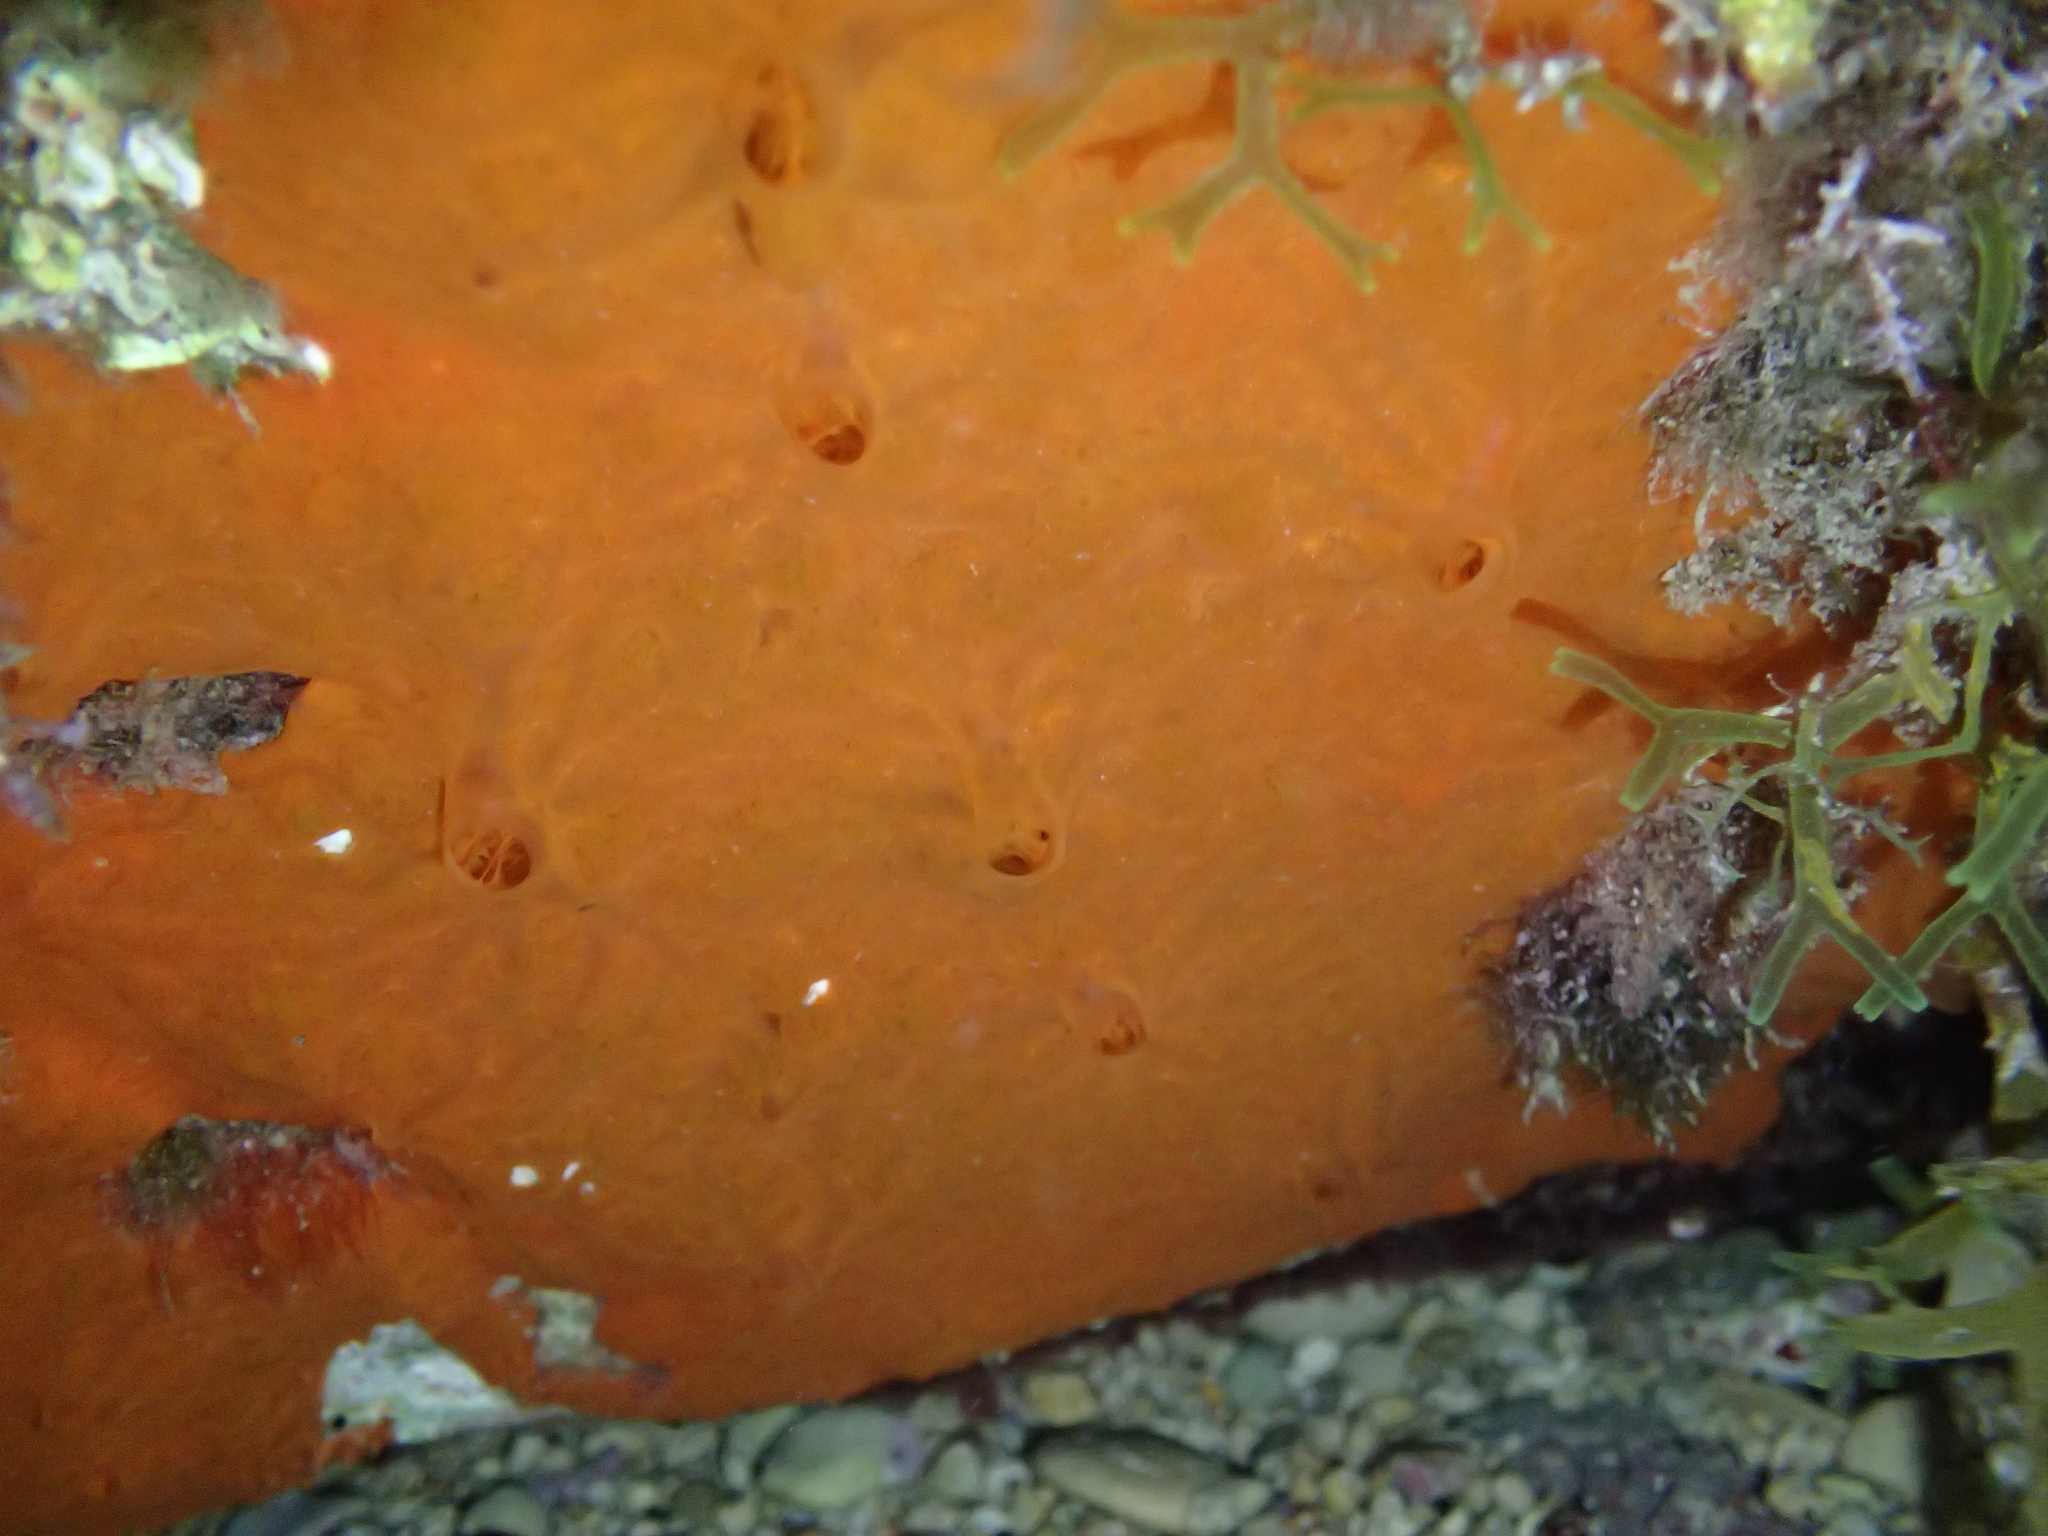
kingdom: Animalia
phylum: Porifera
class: Demospongiae
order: Poecilosclerida
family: Crambeidae
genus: Crambe
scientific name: Crambe crambe
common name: Orange-red encrusting sponge
